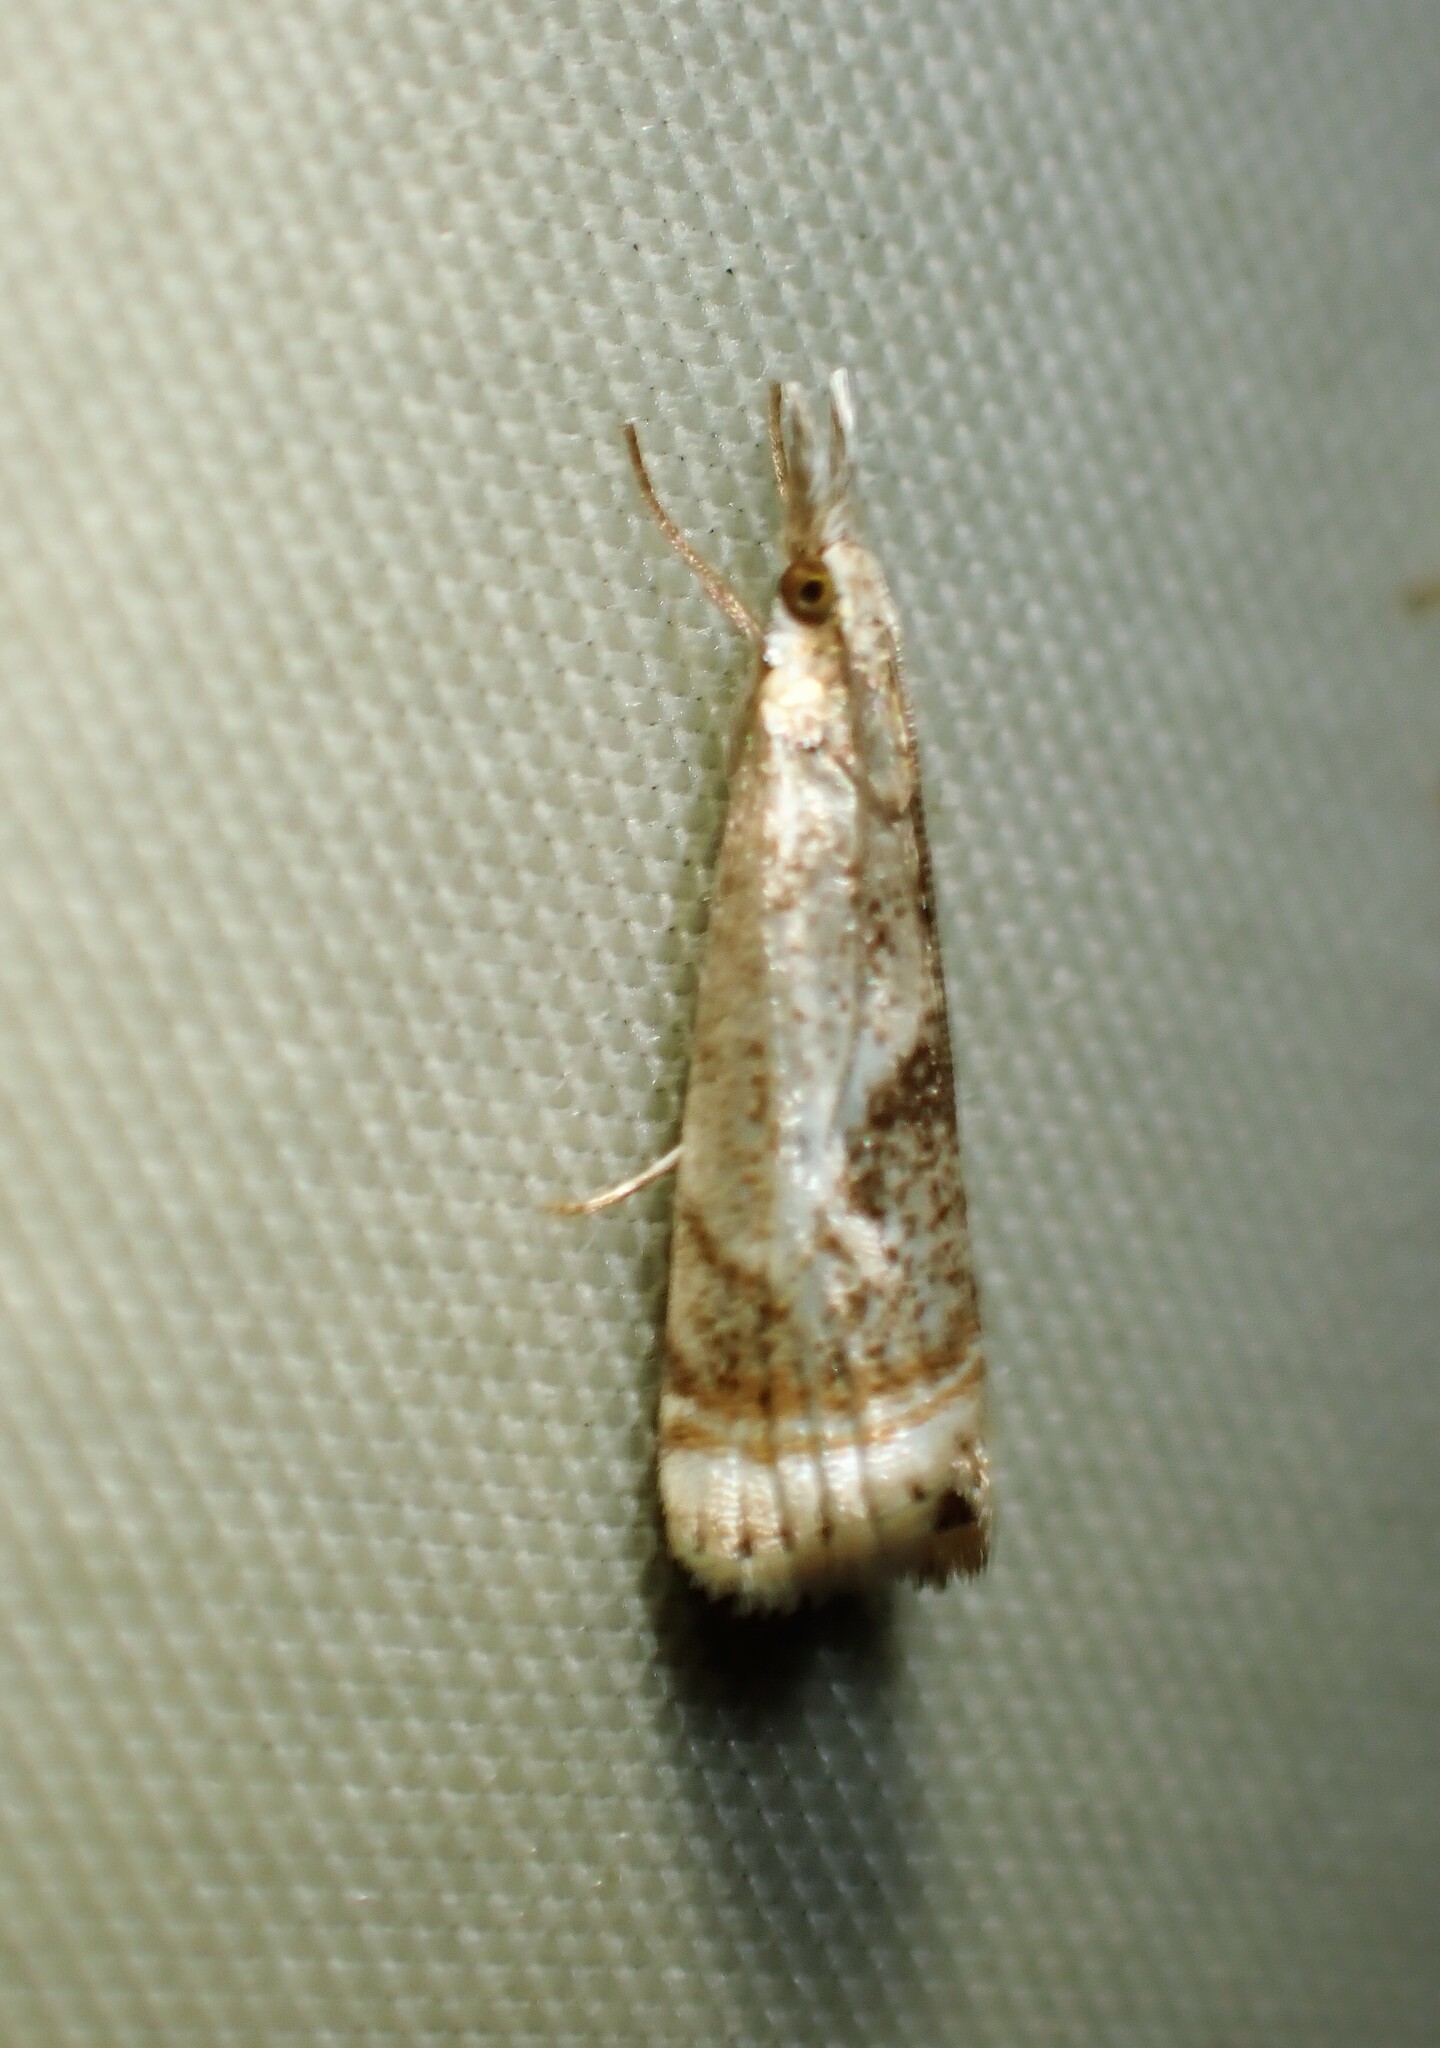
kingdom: Animalia
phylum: Arthropoda
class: Insecta
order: Lepidoptera
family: Crambidae
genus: Microcrambus
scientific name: Microcrambus elegans
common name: Elegant grass-veneer
